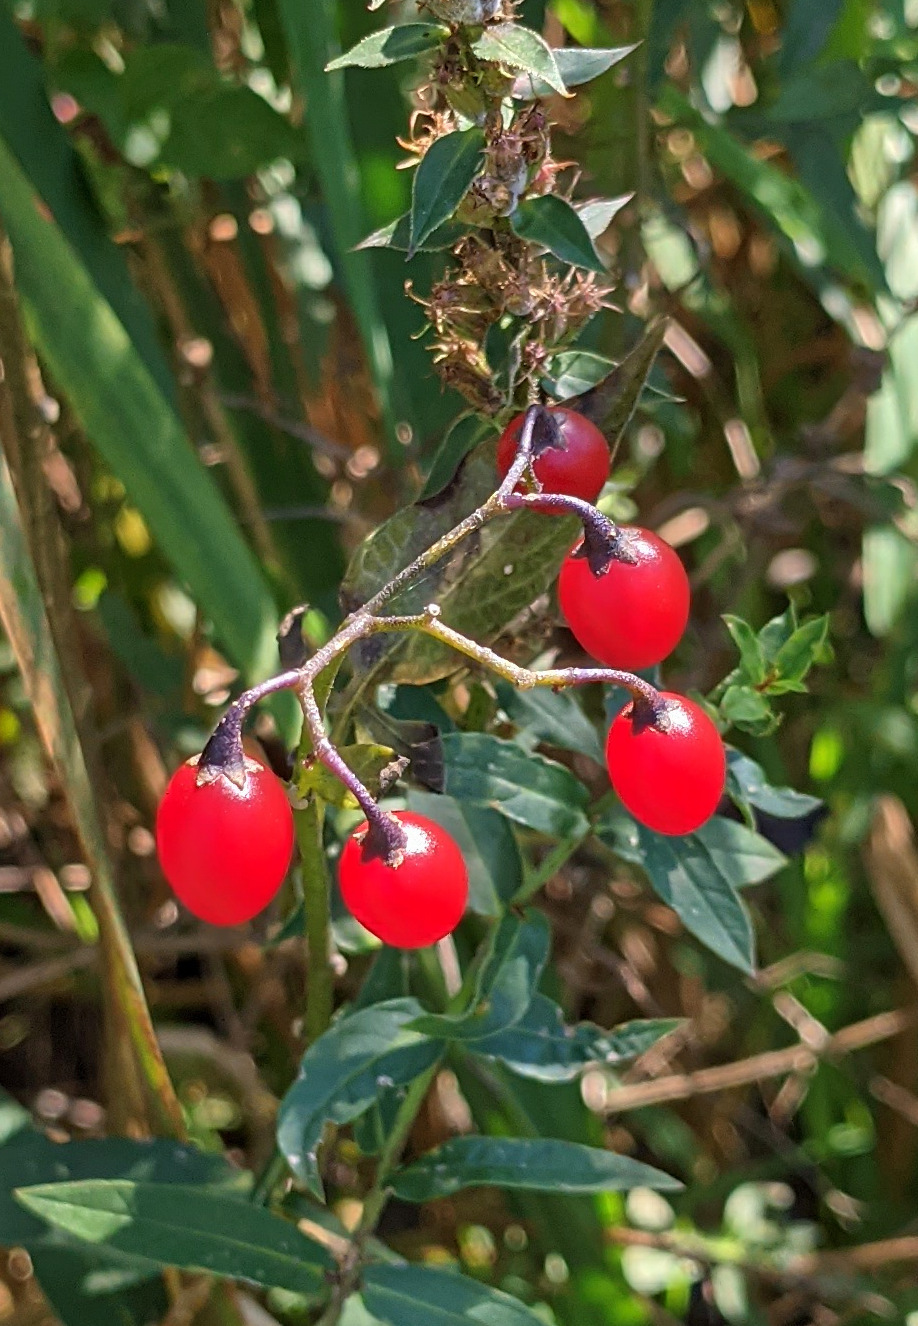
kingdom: Plantae
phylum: Tracheophyta
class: Magnoliopsida
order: Solanales
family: Solanaceae
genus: Solanum
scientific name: Solanum dulcamara
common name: Climbing nightshade
